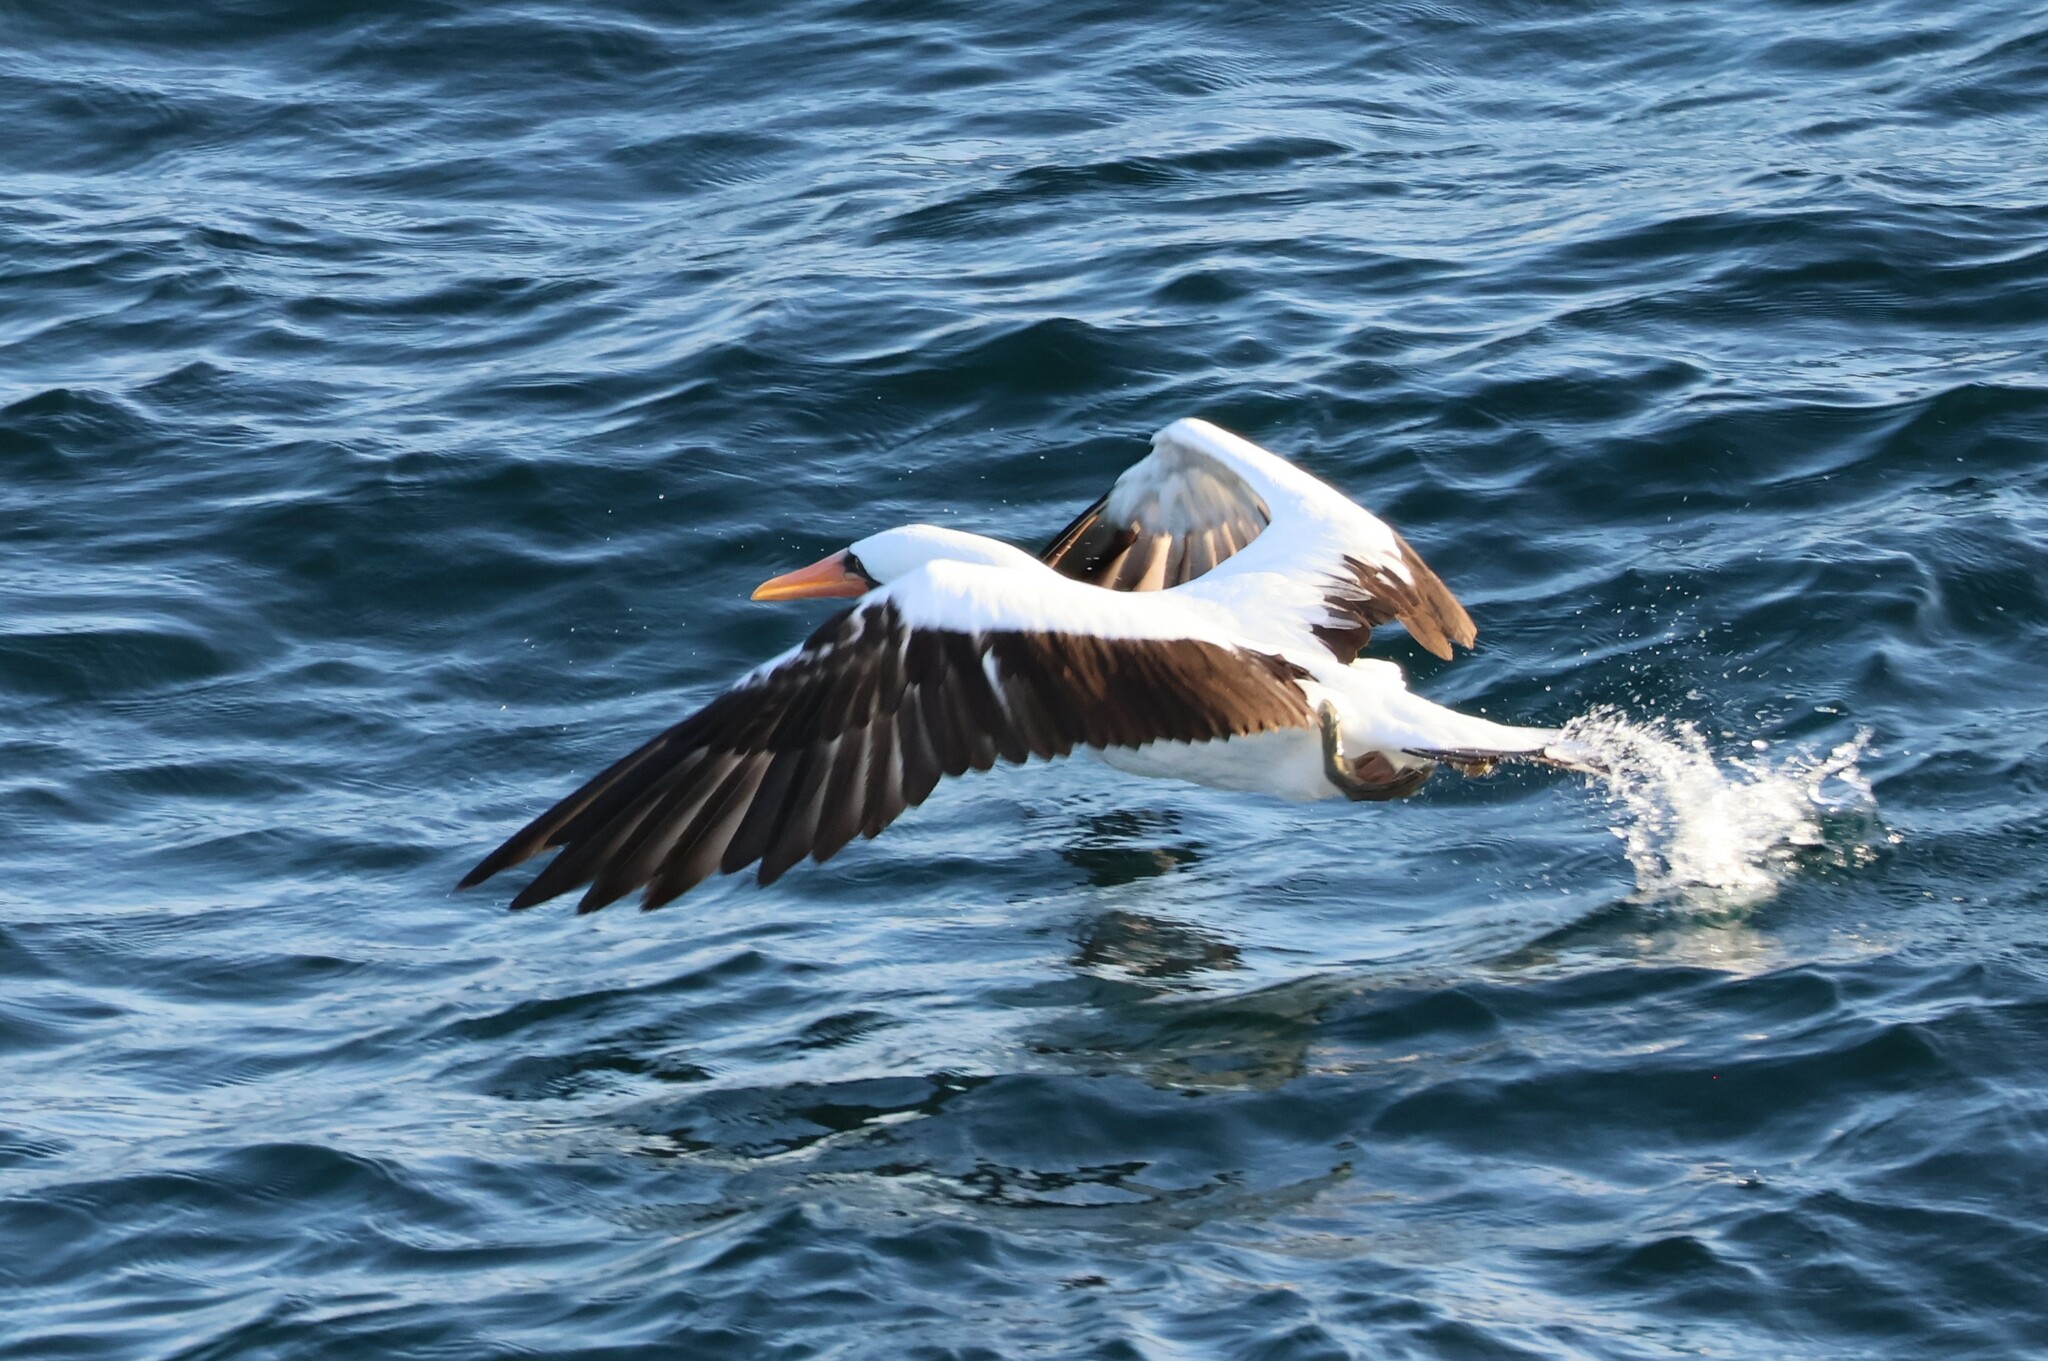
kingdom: Animalia
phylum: Chordata
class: Aves
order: Suliformes
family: Sulidae
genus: Sula
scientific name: Sula granti
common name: Nazca booby
